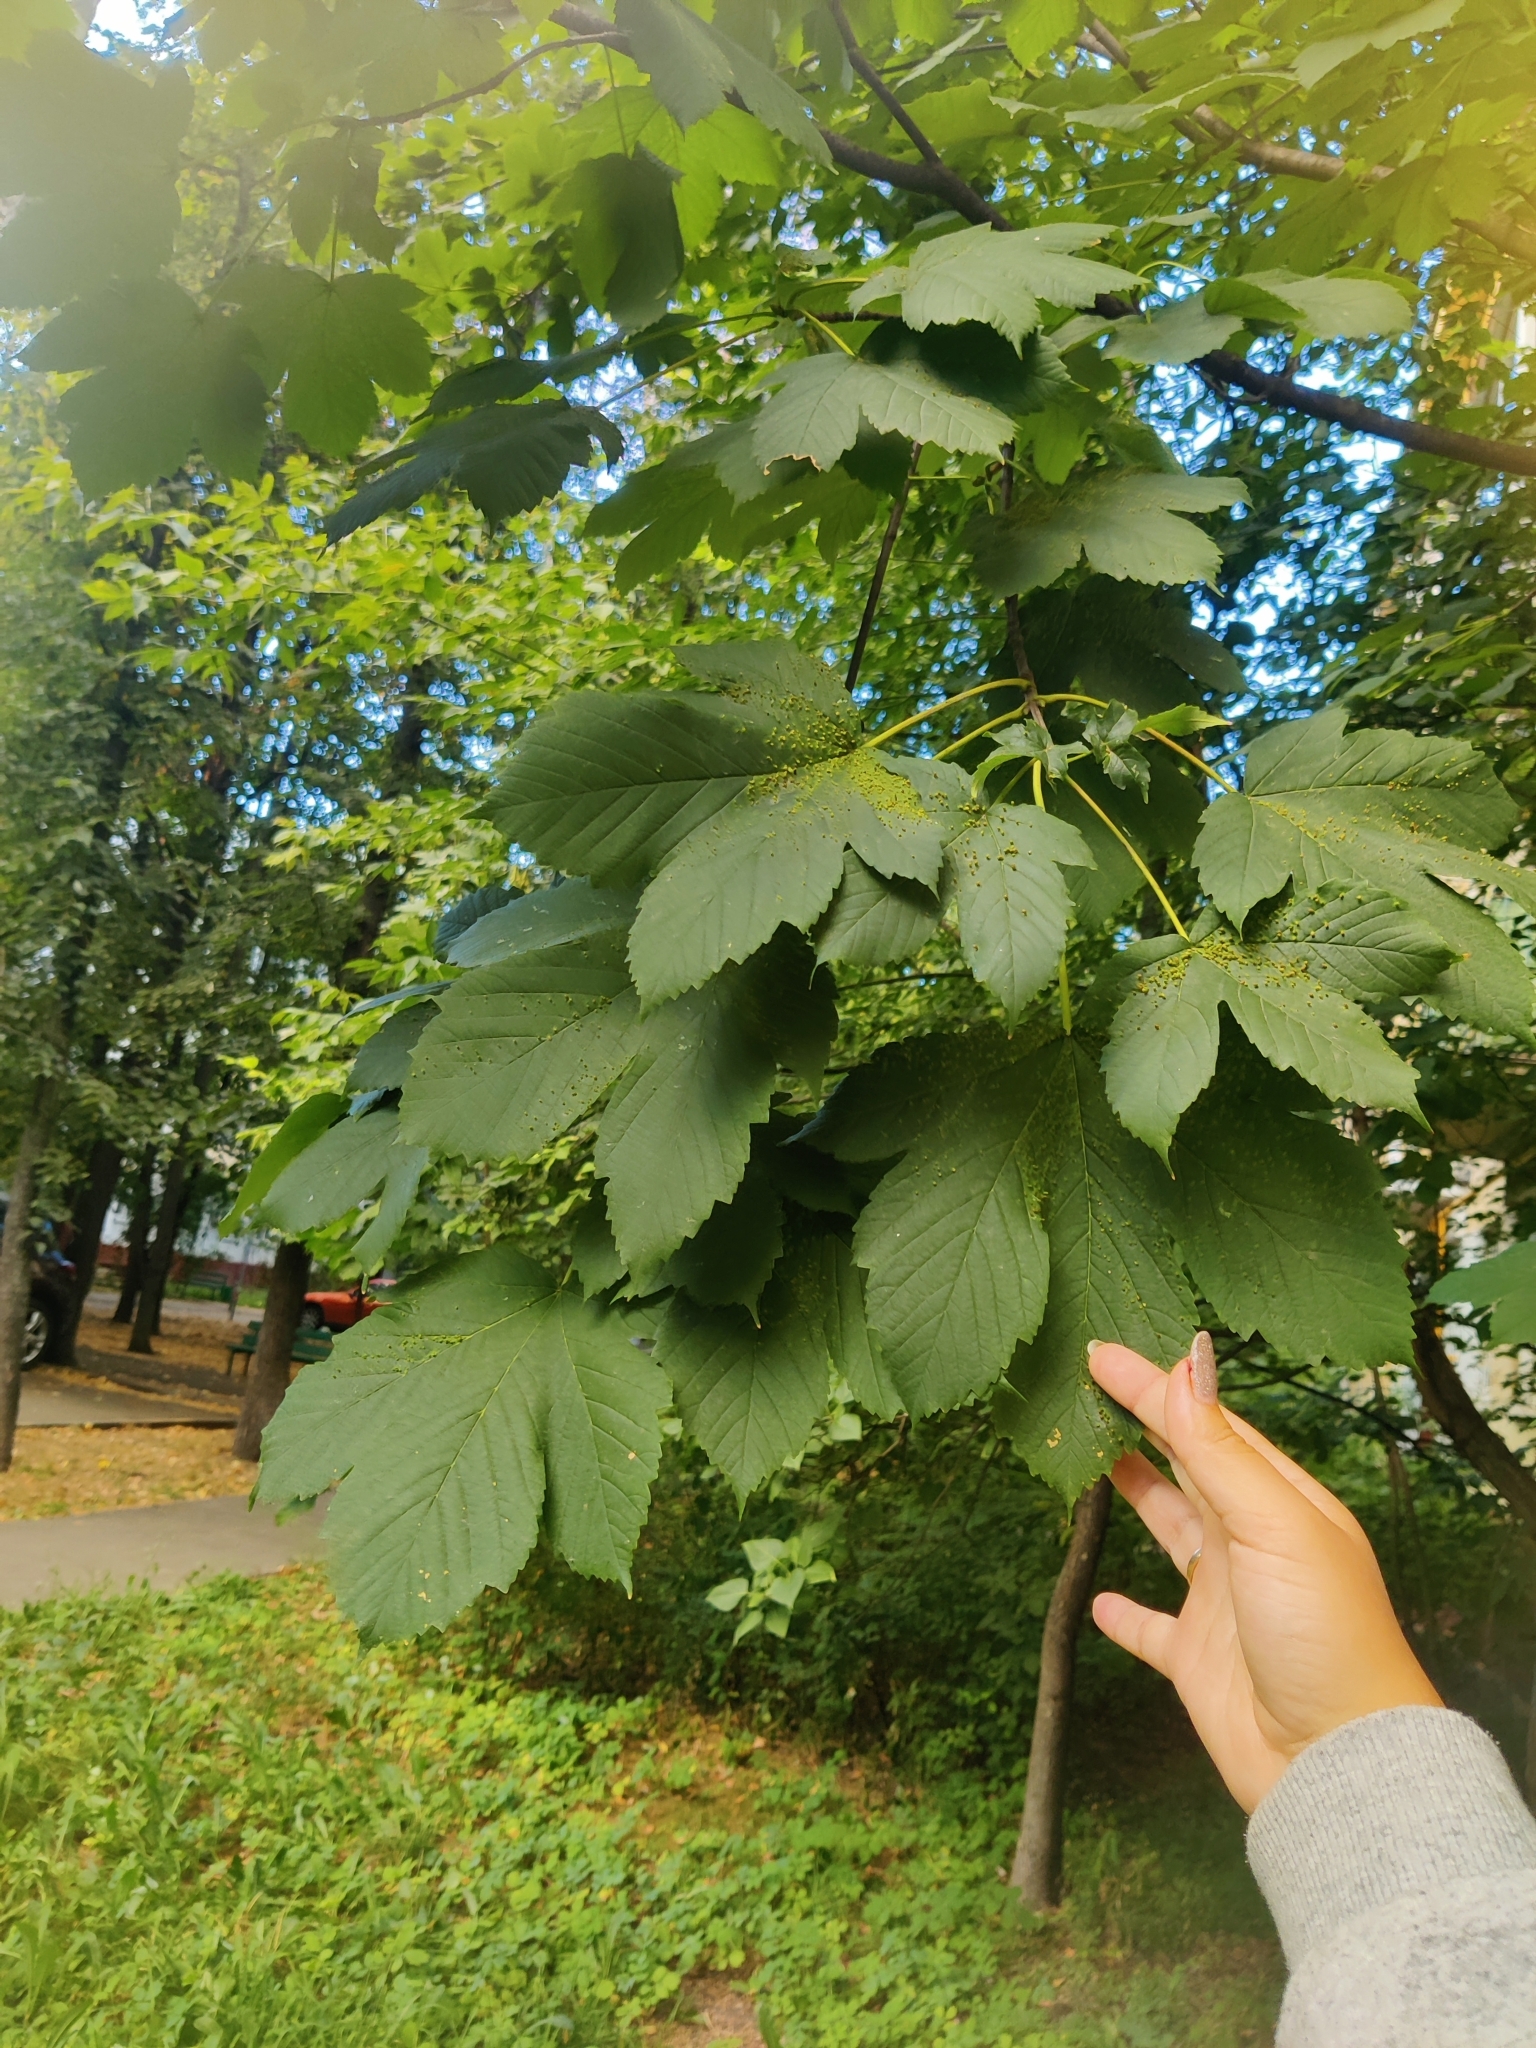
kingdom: Plantae
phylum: Tracheophyta
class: Magnoliopsida
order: Sapindales
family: Sapindaceae
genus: Acer
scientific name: Acer pseudoplatanus
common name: Sycamore
